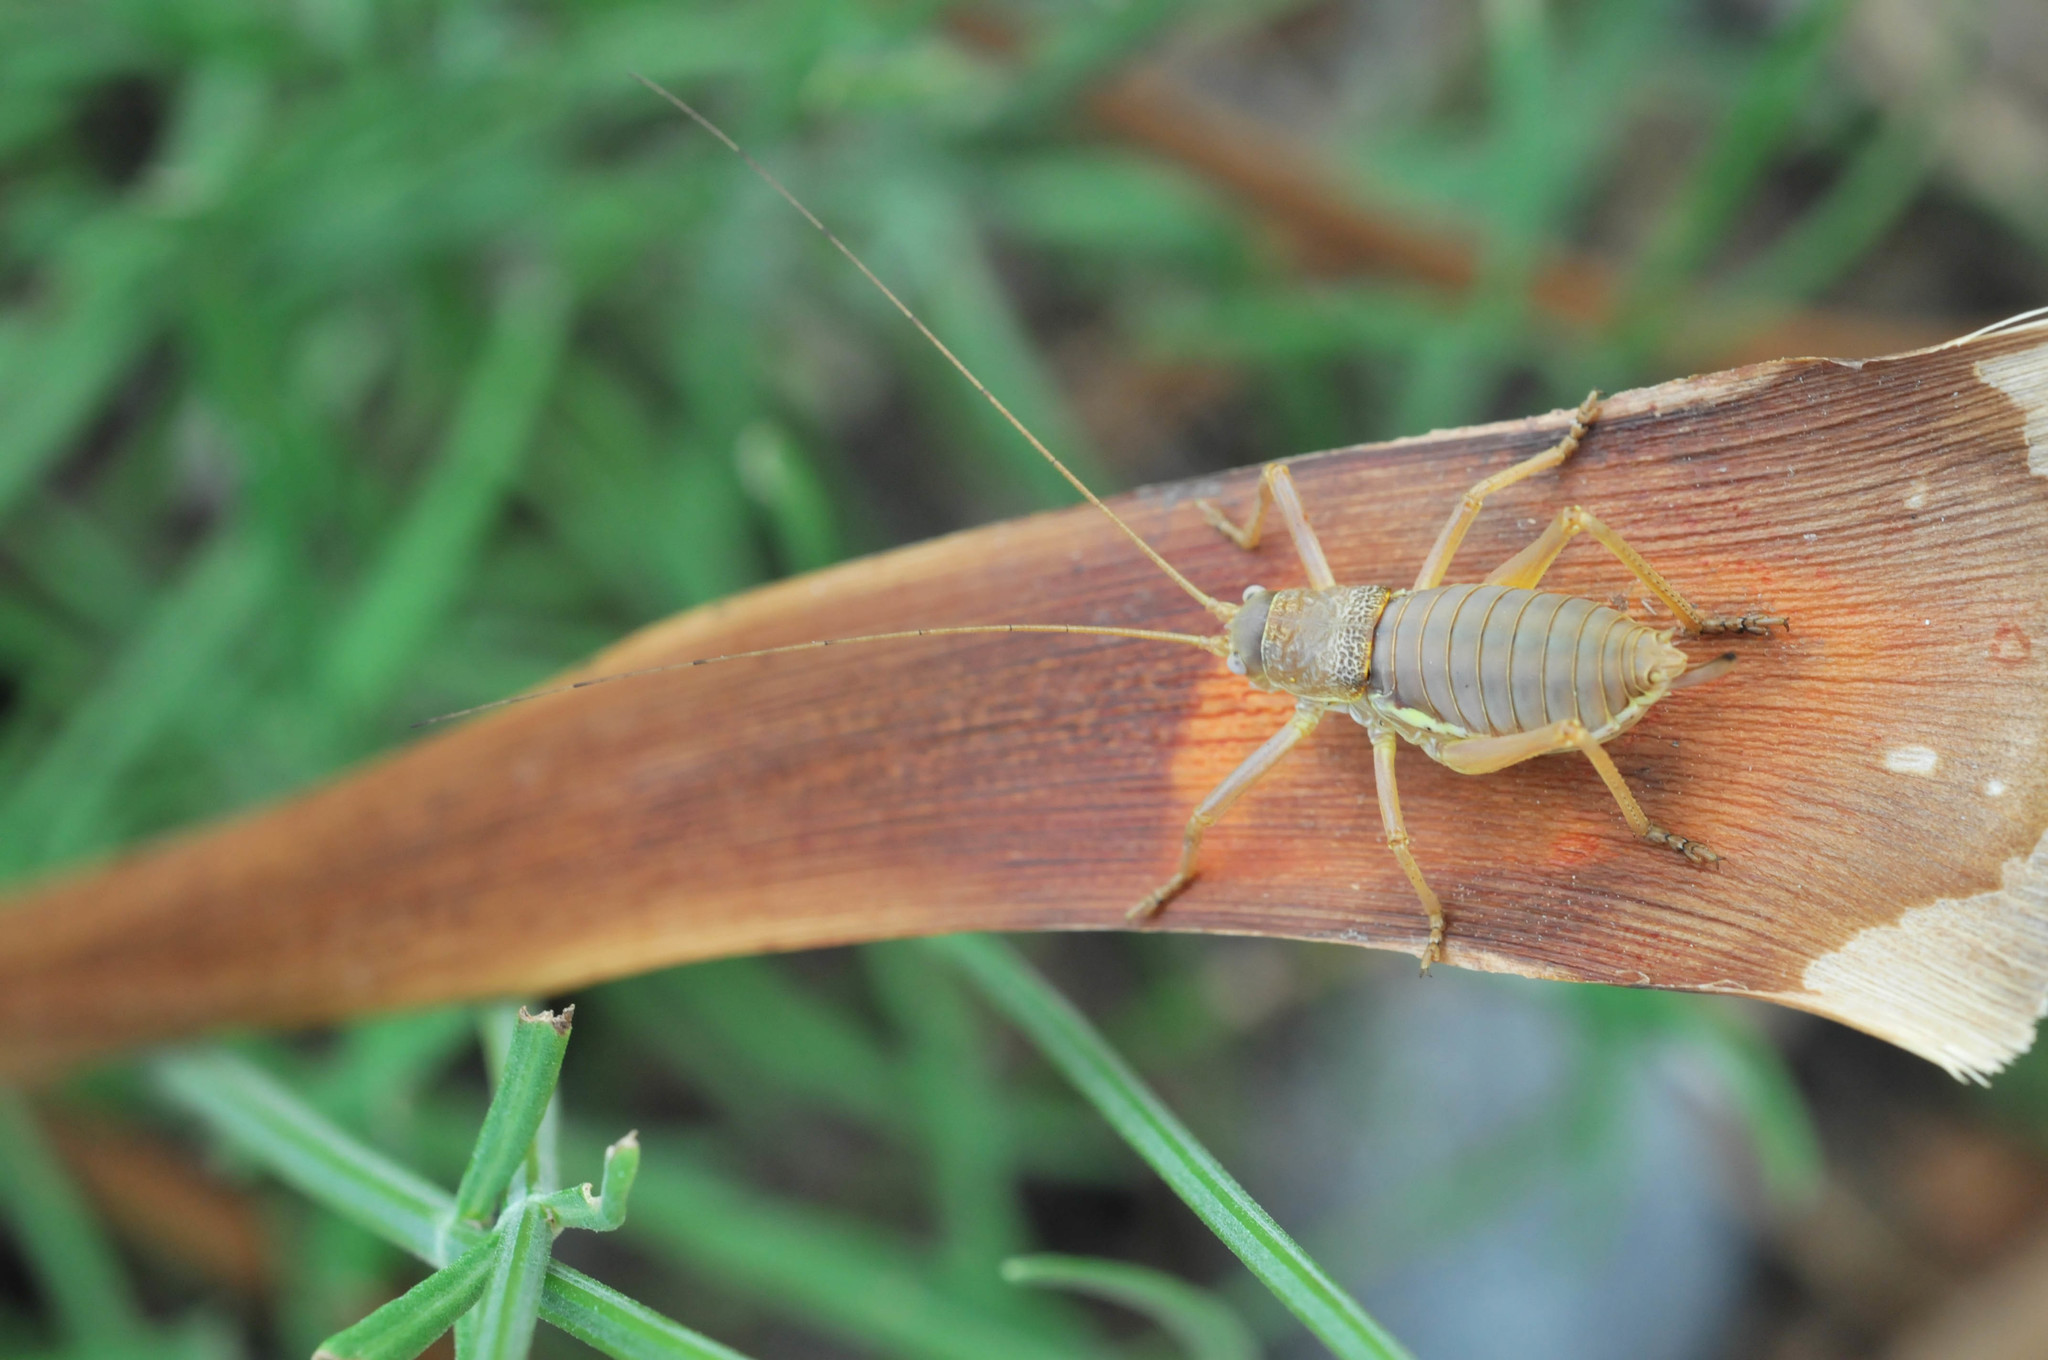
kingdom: Animalia
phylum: Arthropoda
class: Insecta
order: Orthoptera
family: Tettigoniidae
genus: Uromenus
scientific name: Uromenus rugosicollis
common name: Rough saddle bush-cricket
